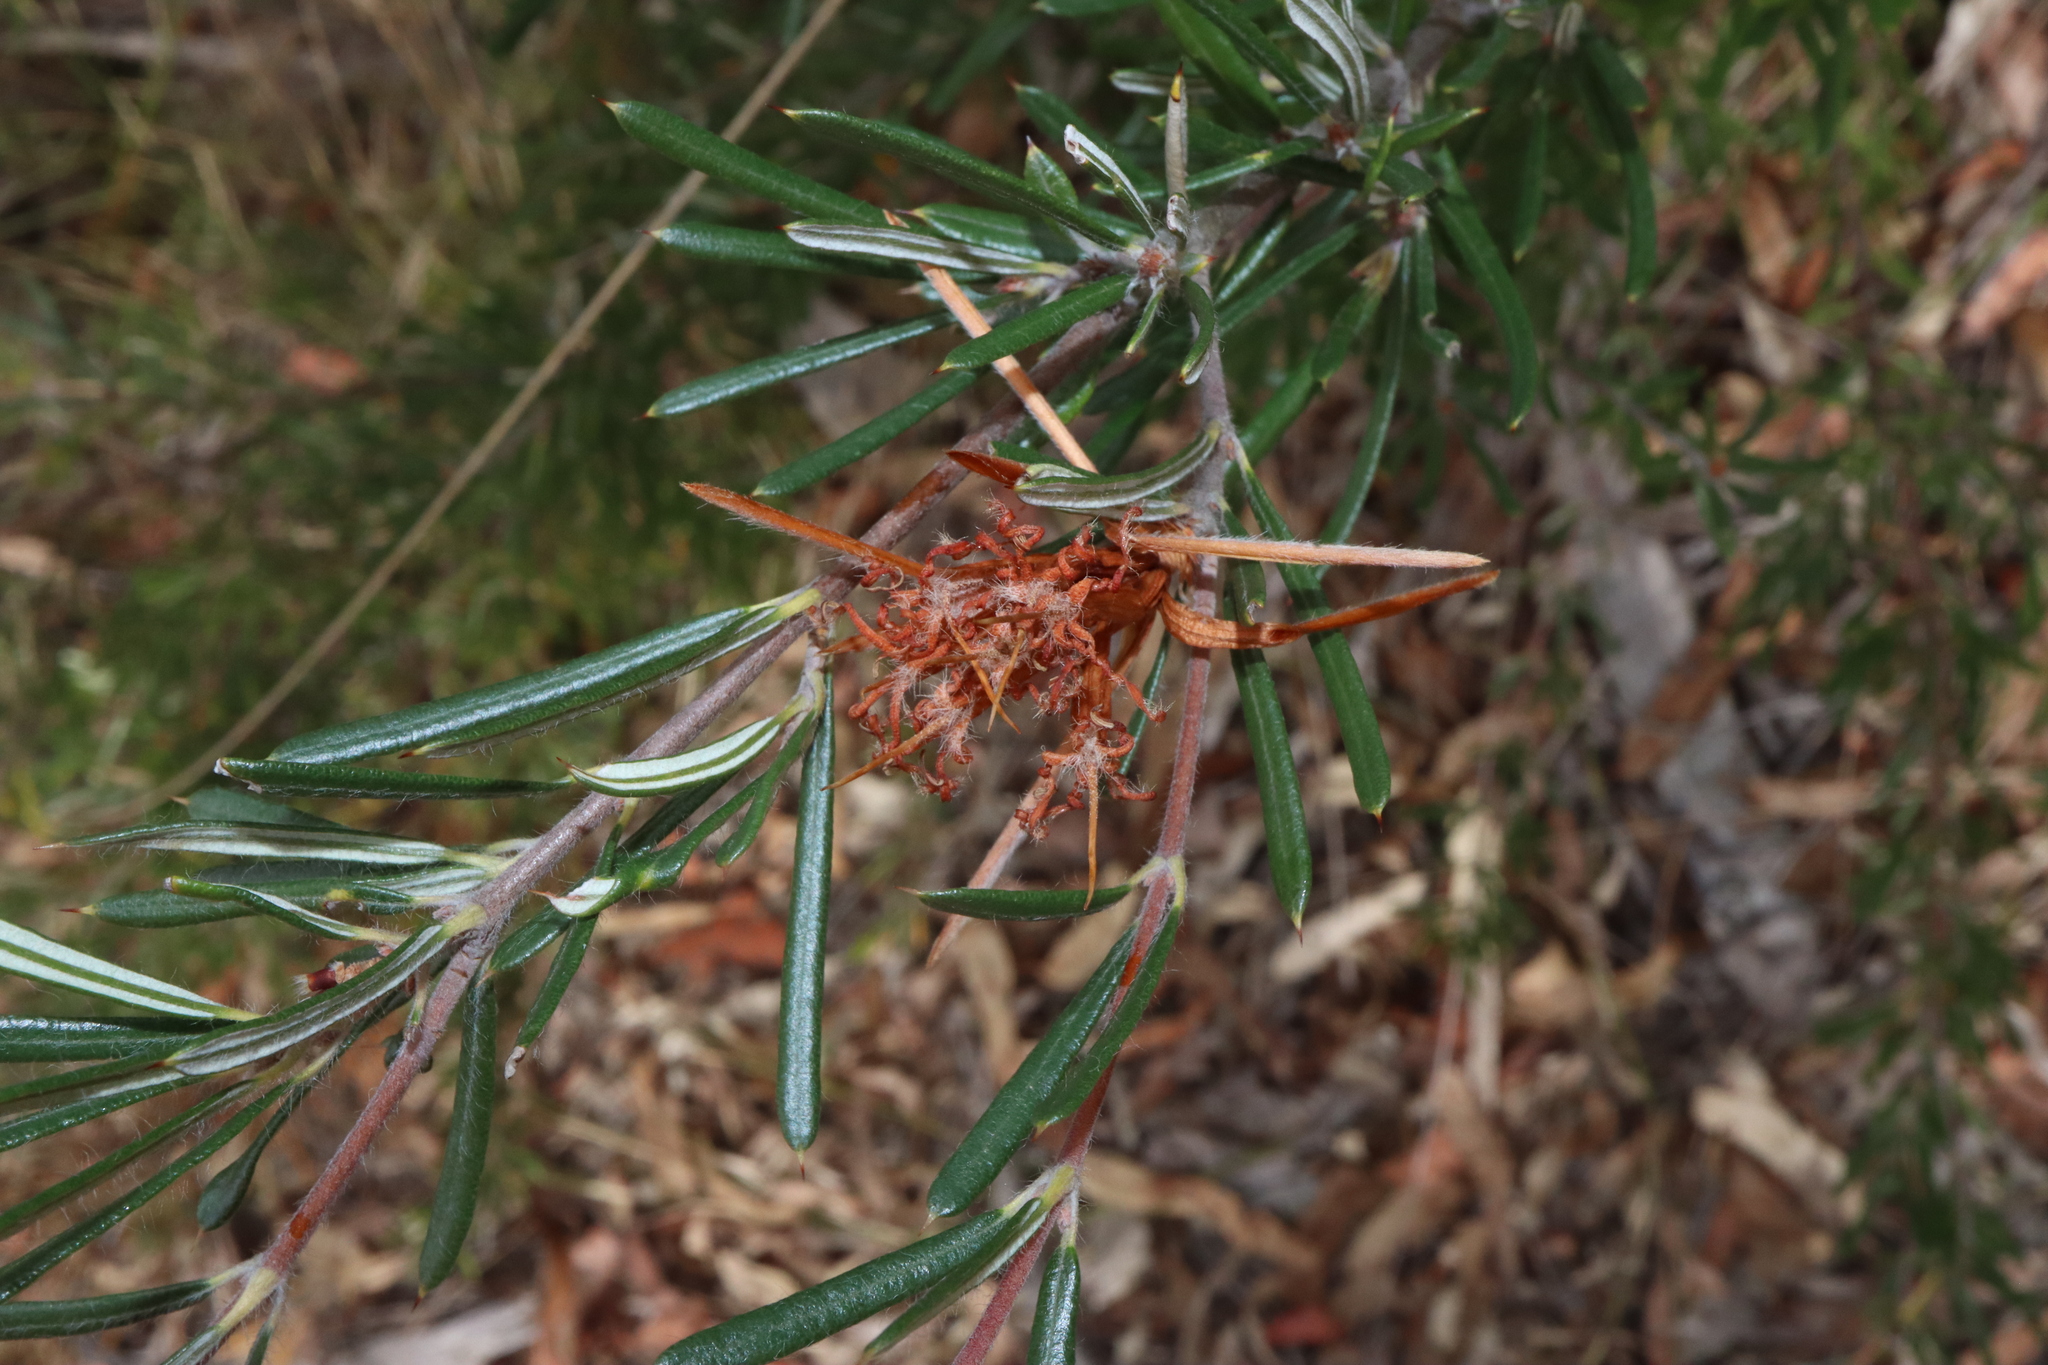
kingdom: Plantae
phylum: Tracheophyta
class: Magnoliopsida
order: Proteales
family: Proteaceae
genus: Lambertia
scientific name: Lambertia formosa
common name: Mountain-devil
